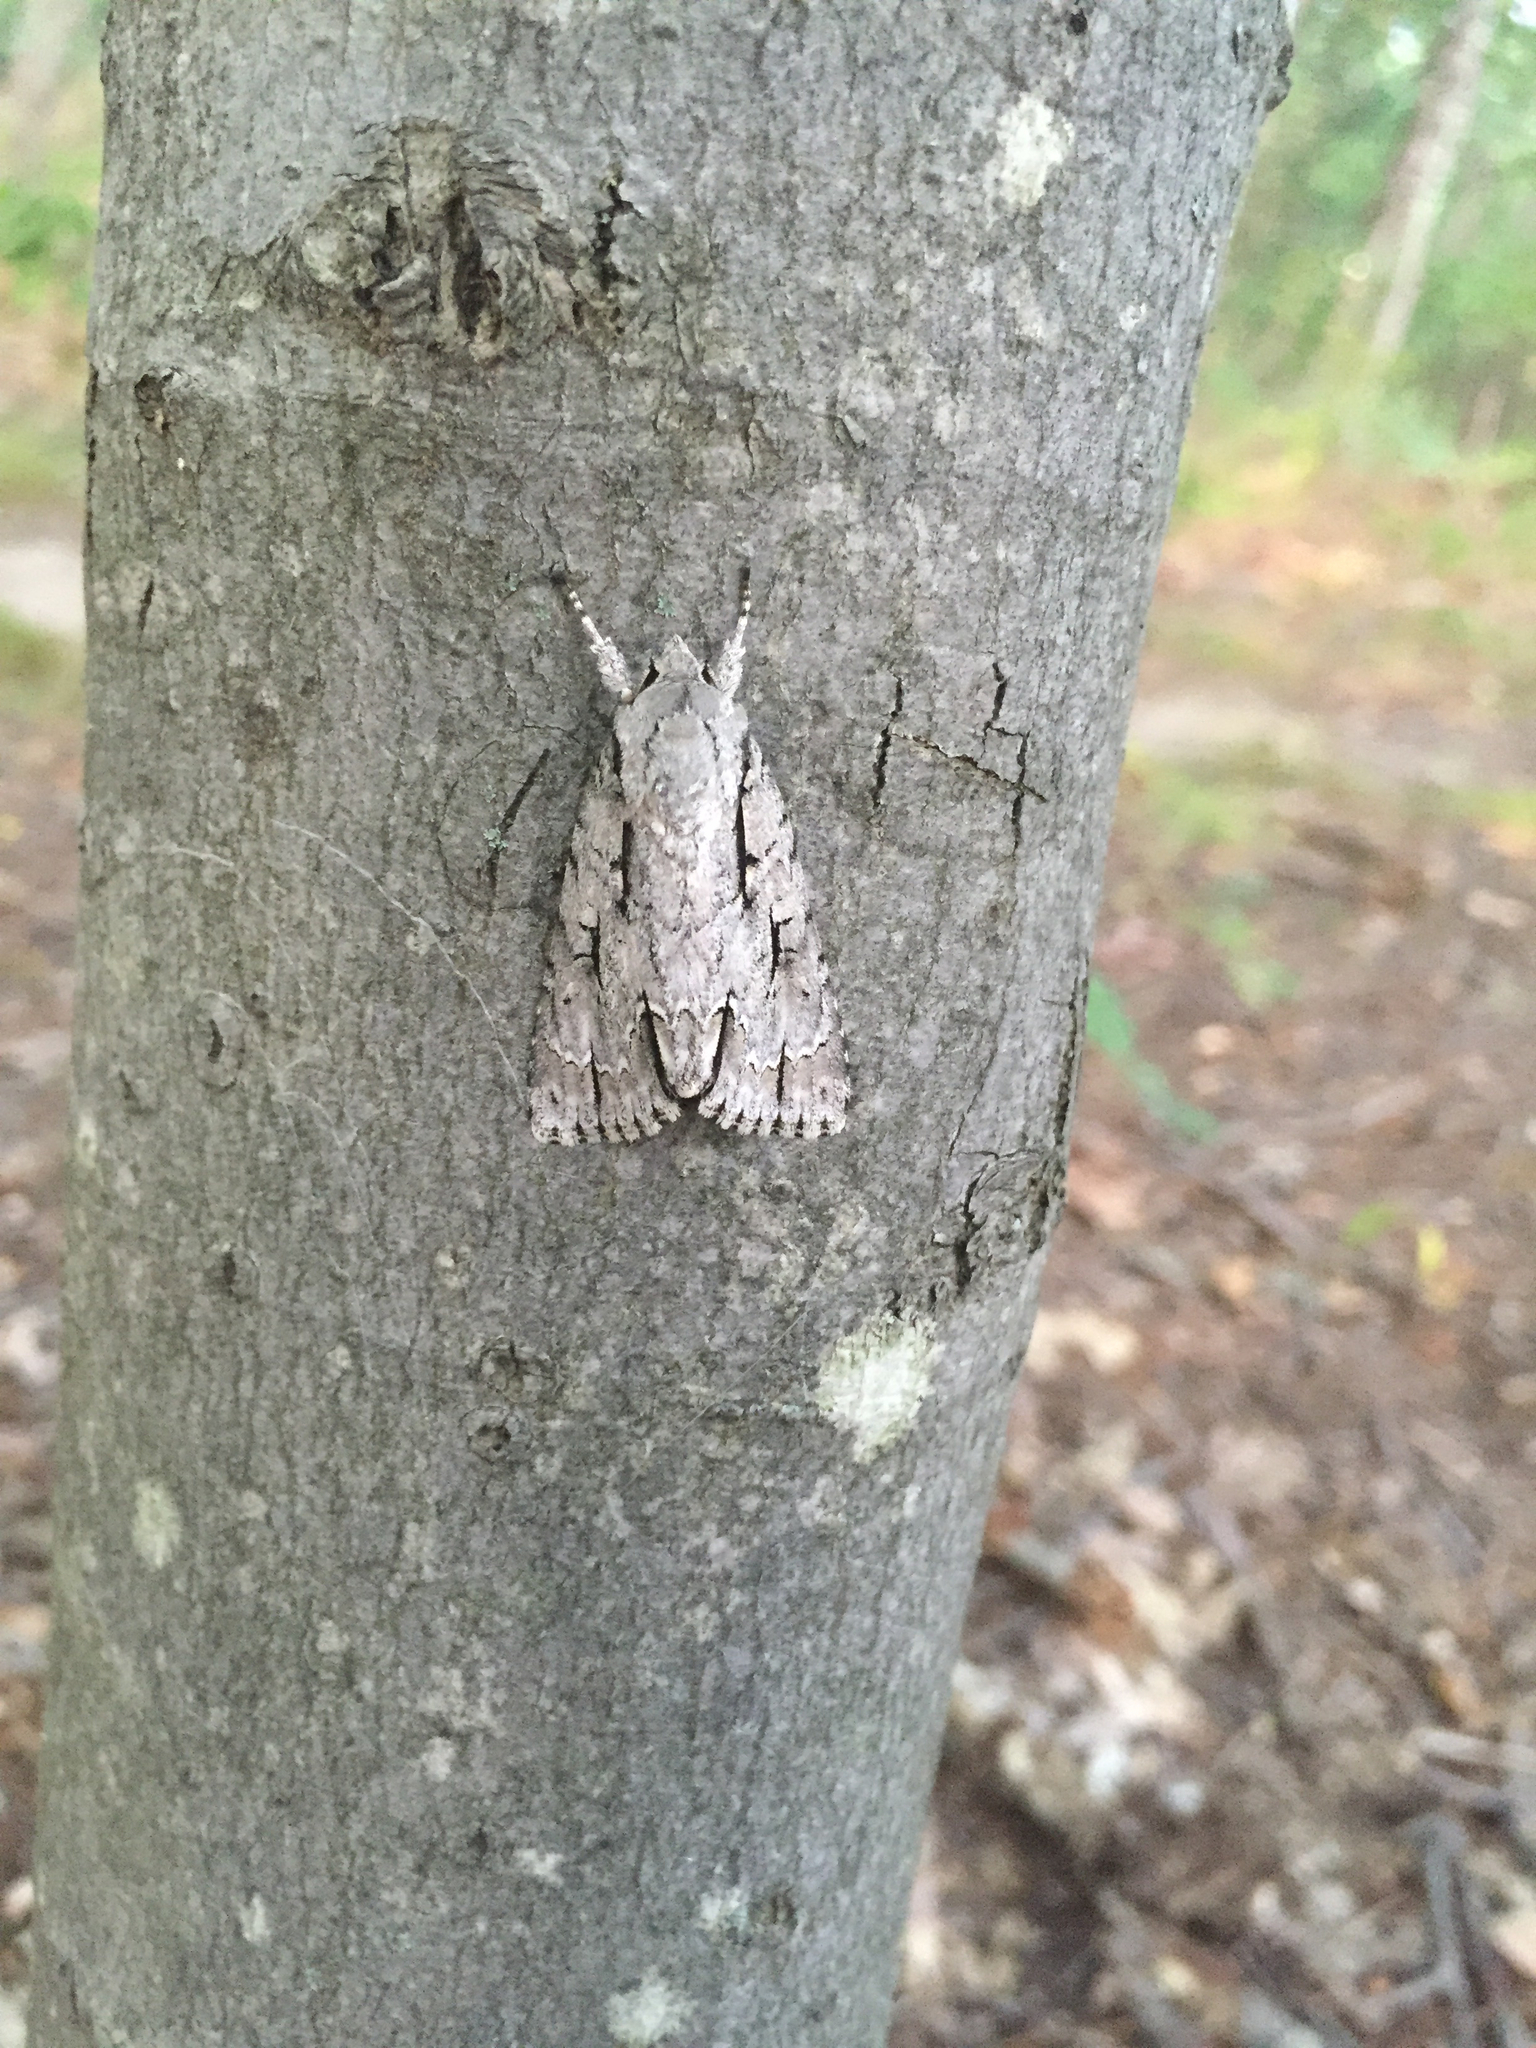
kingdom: Animalia
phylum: Arthropoda
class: Insecta
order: Lepidoptera
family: Noctuidae
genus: Acronicta
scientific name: Acronicta lobeliae
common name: Greater oak dagger
